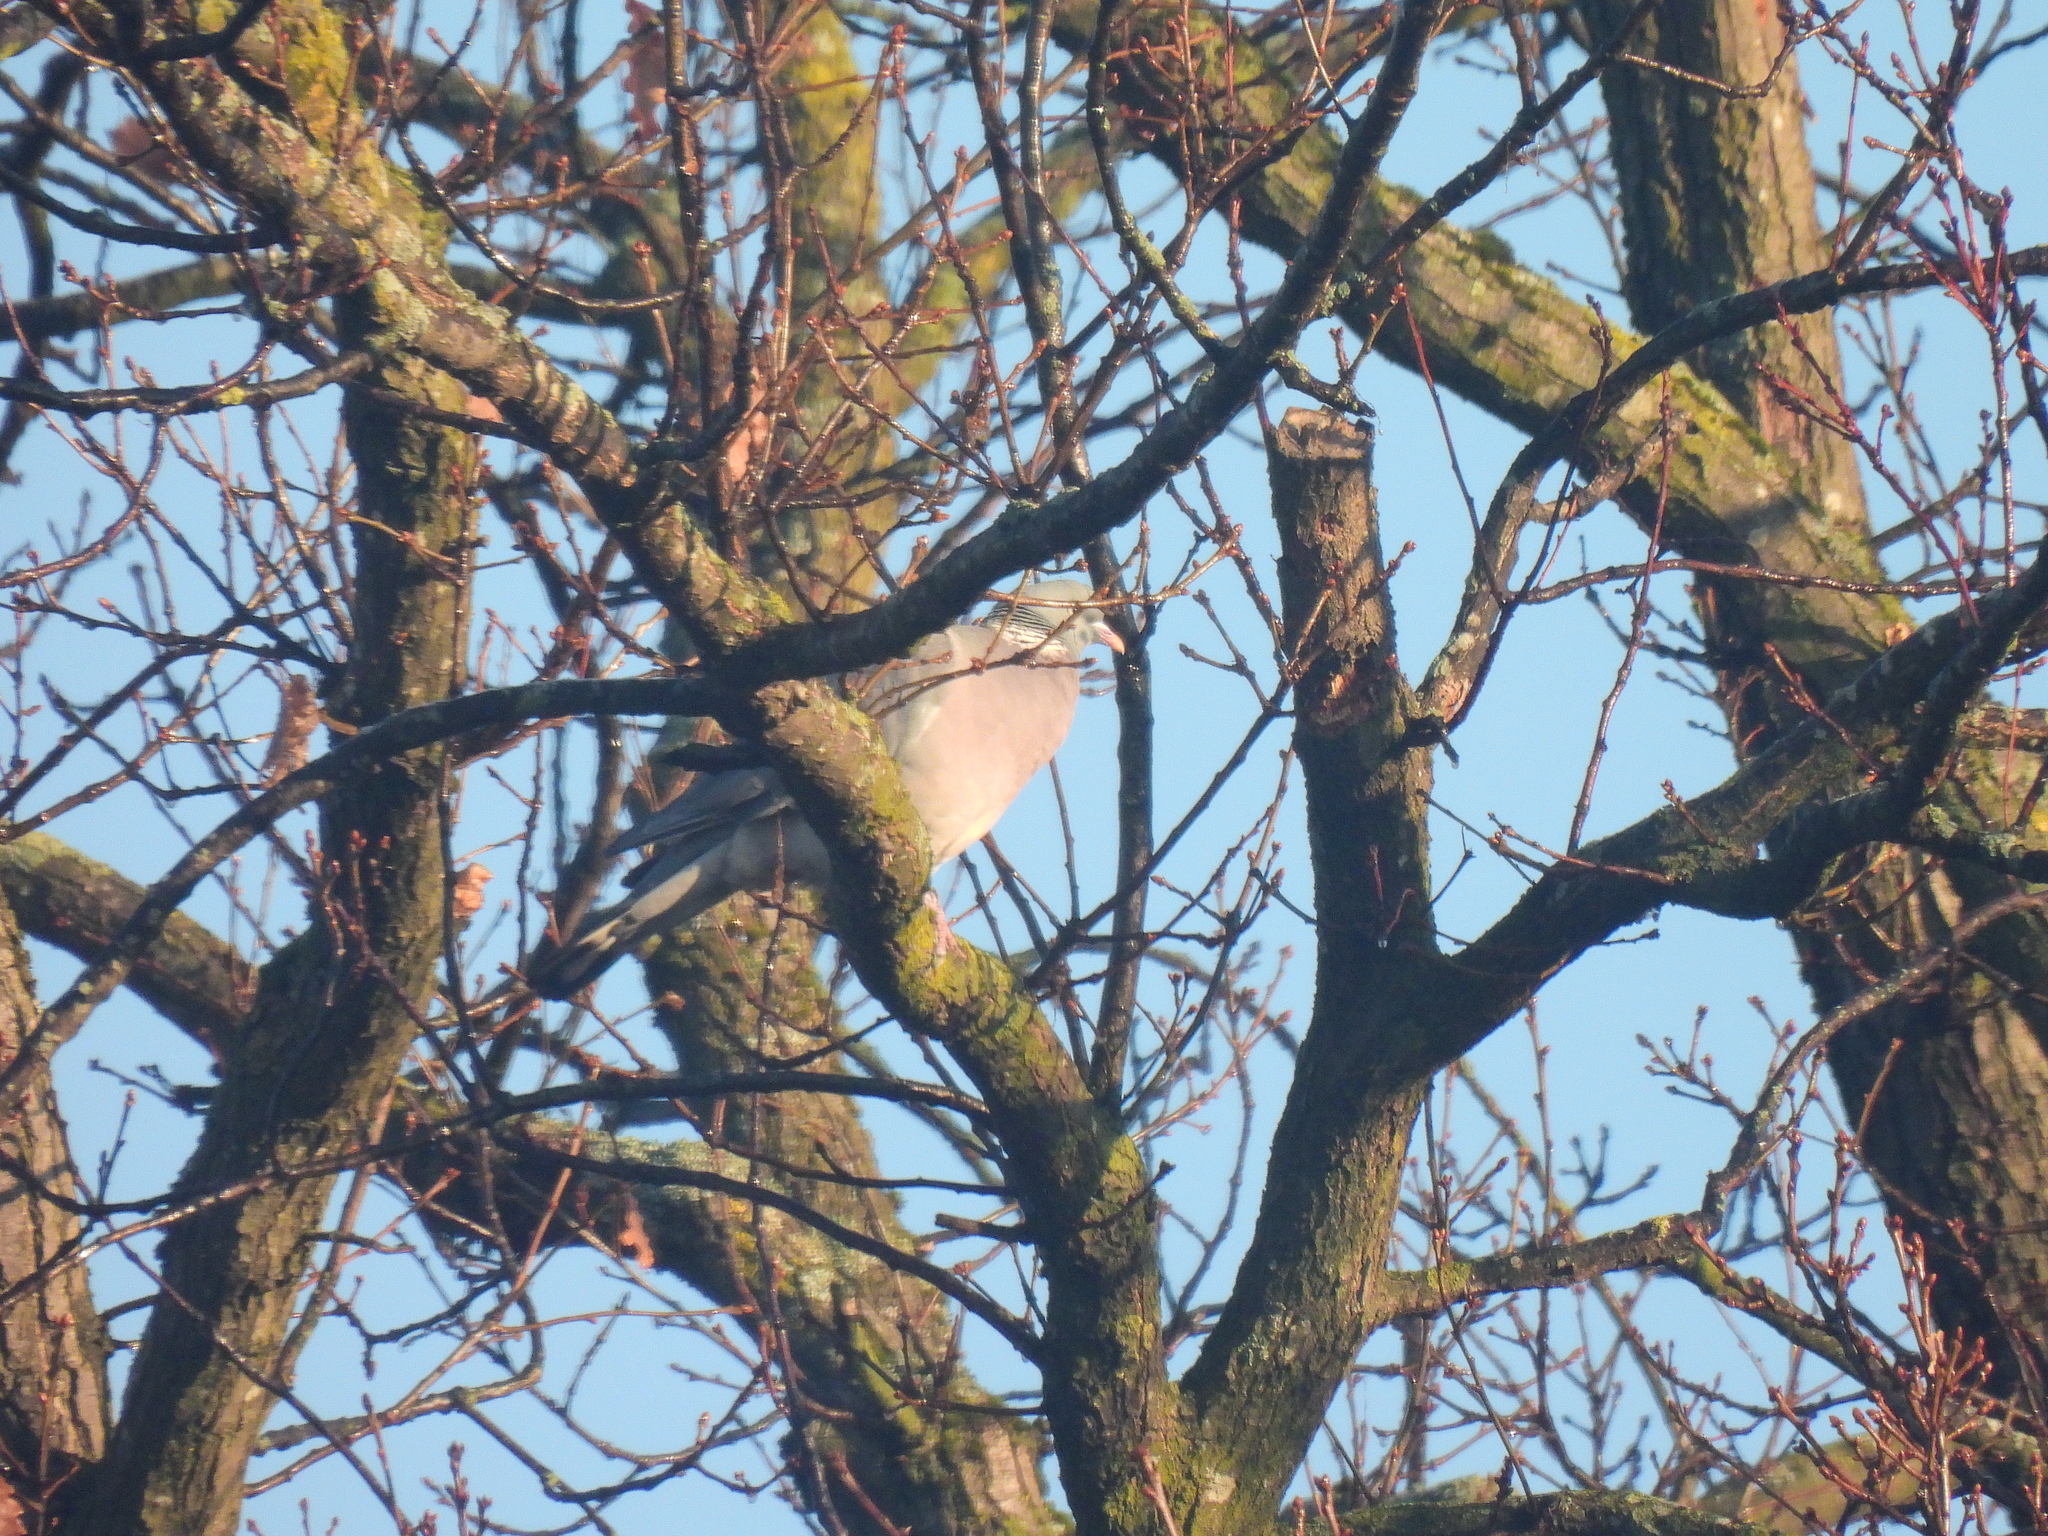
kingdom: Animalia
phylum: Chordata
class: Aves
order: Columbiformes
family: Columbidae
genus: Columba
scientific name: Columba palumbus
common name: Common wood pigeon
